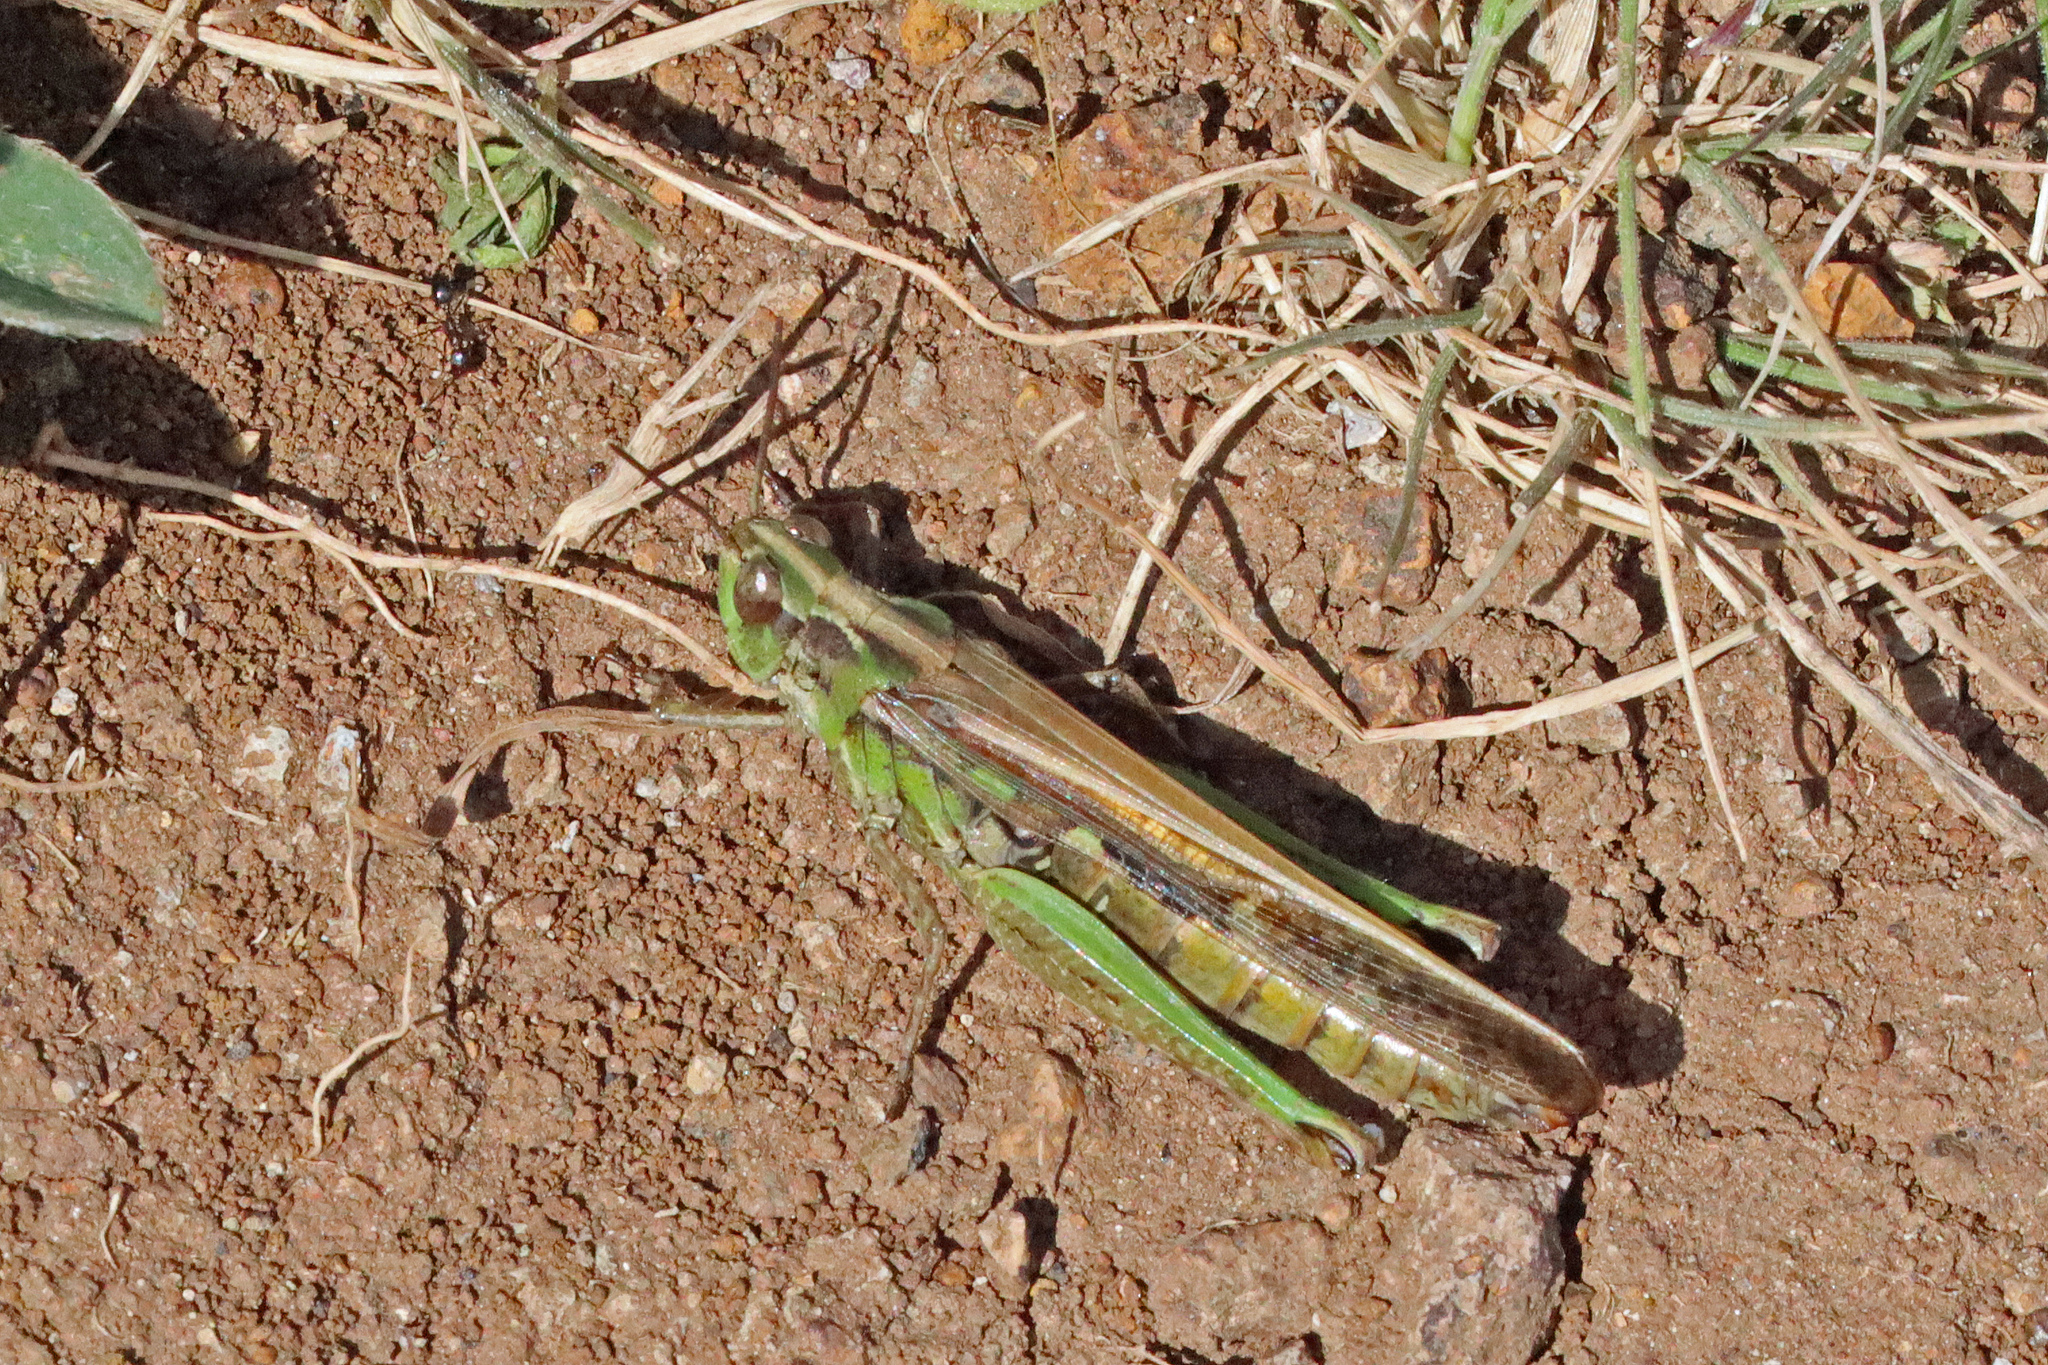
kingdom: Animalia
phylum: Arthropoda
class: Insecta
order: Orthoptera
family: Acrididae
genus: Aiolopus
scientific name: Aiolopus thalassinus
